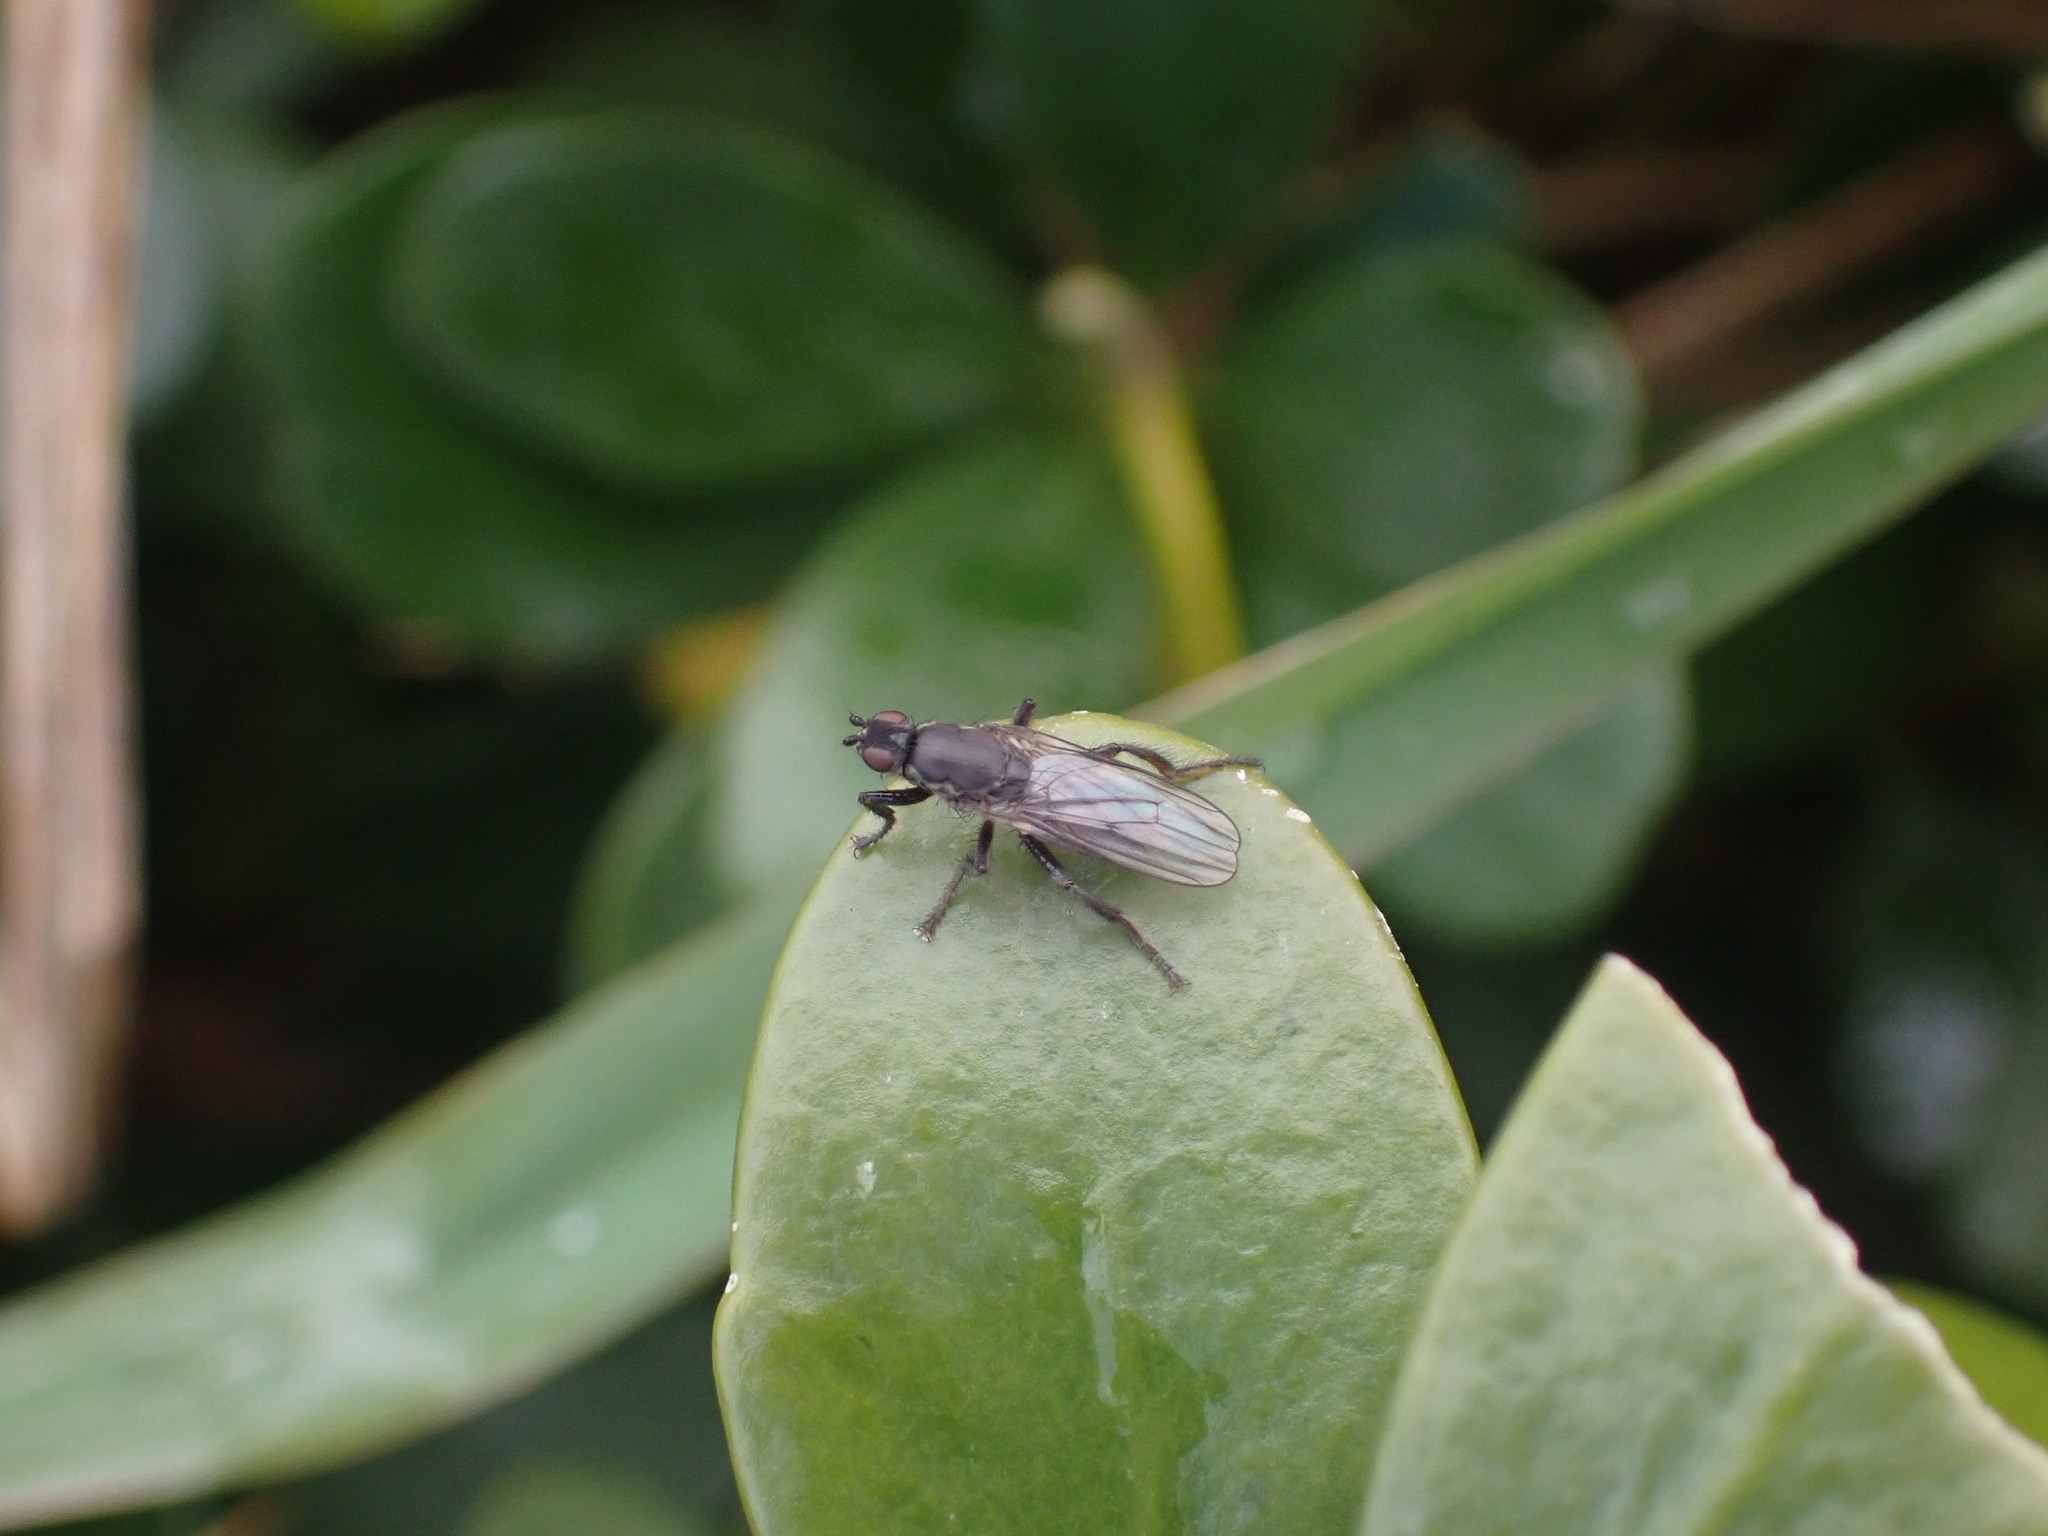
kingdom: Animalia
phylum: Arthropoda
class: Insecta
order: Diptera
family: Coelopidae
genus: Chaetocoelopa
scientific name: Chaetocoelopa littoralis
